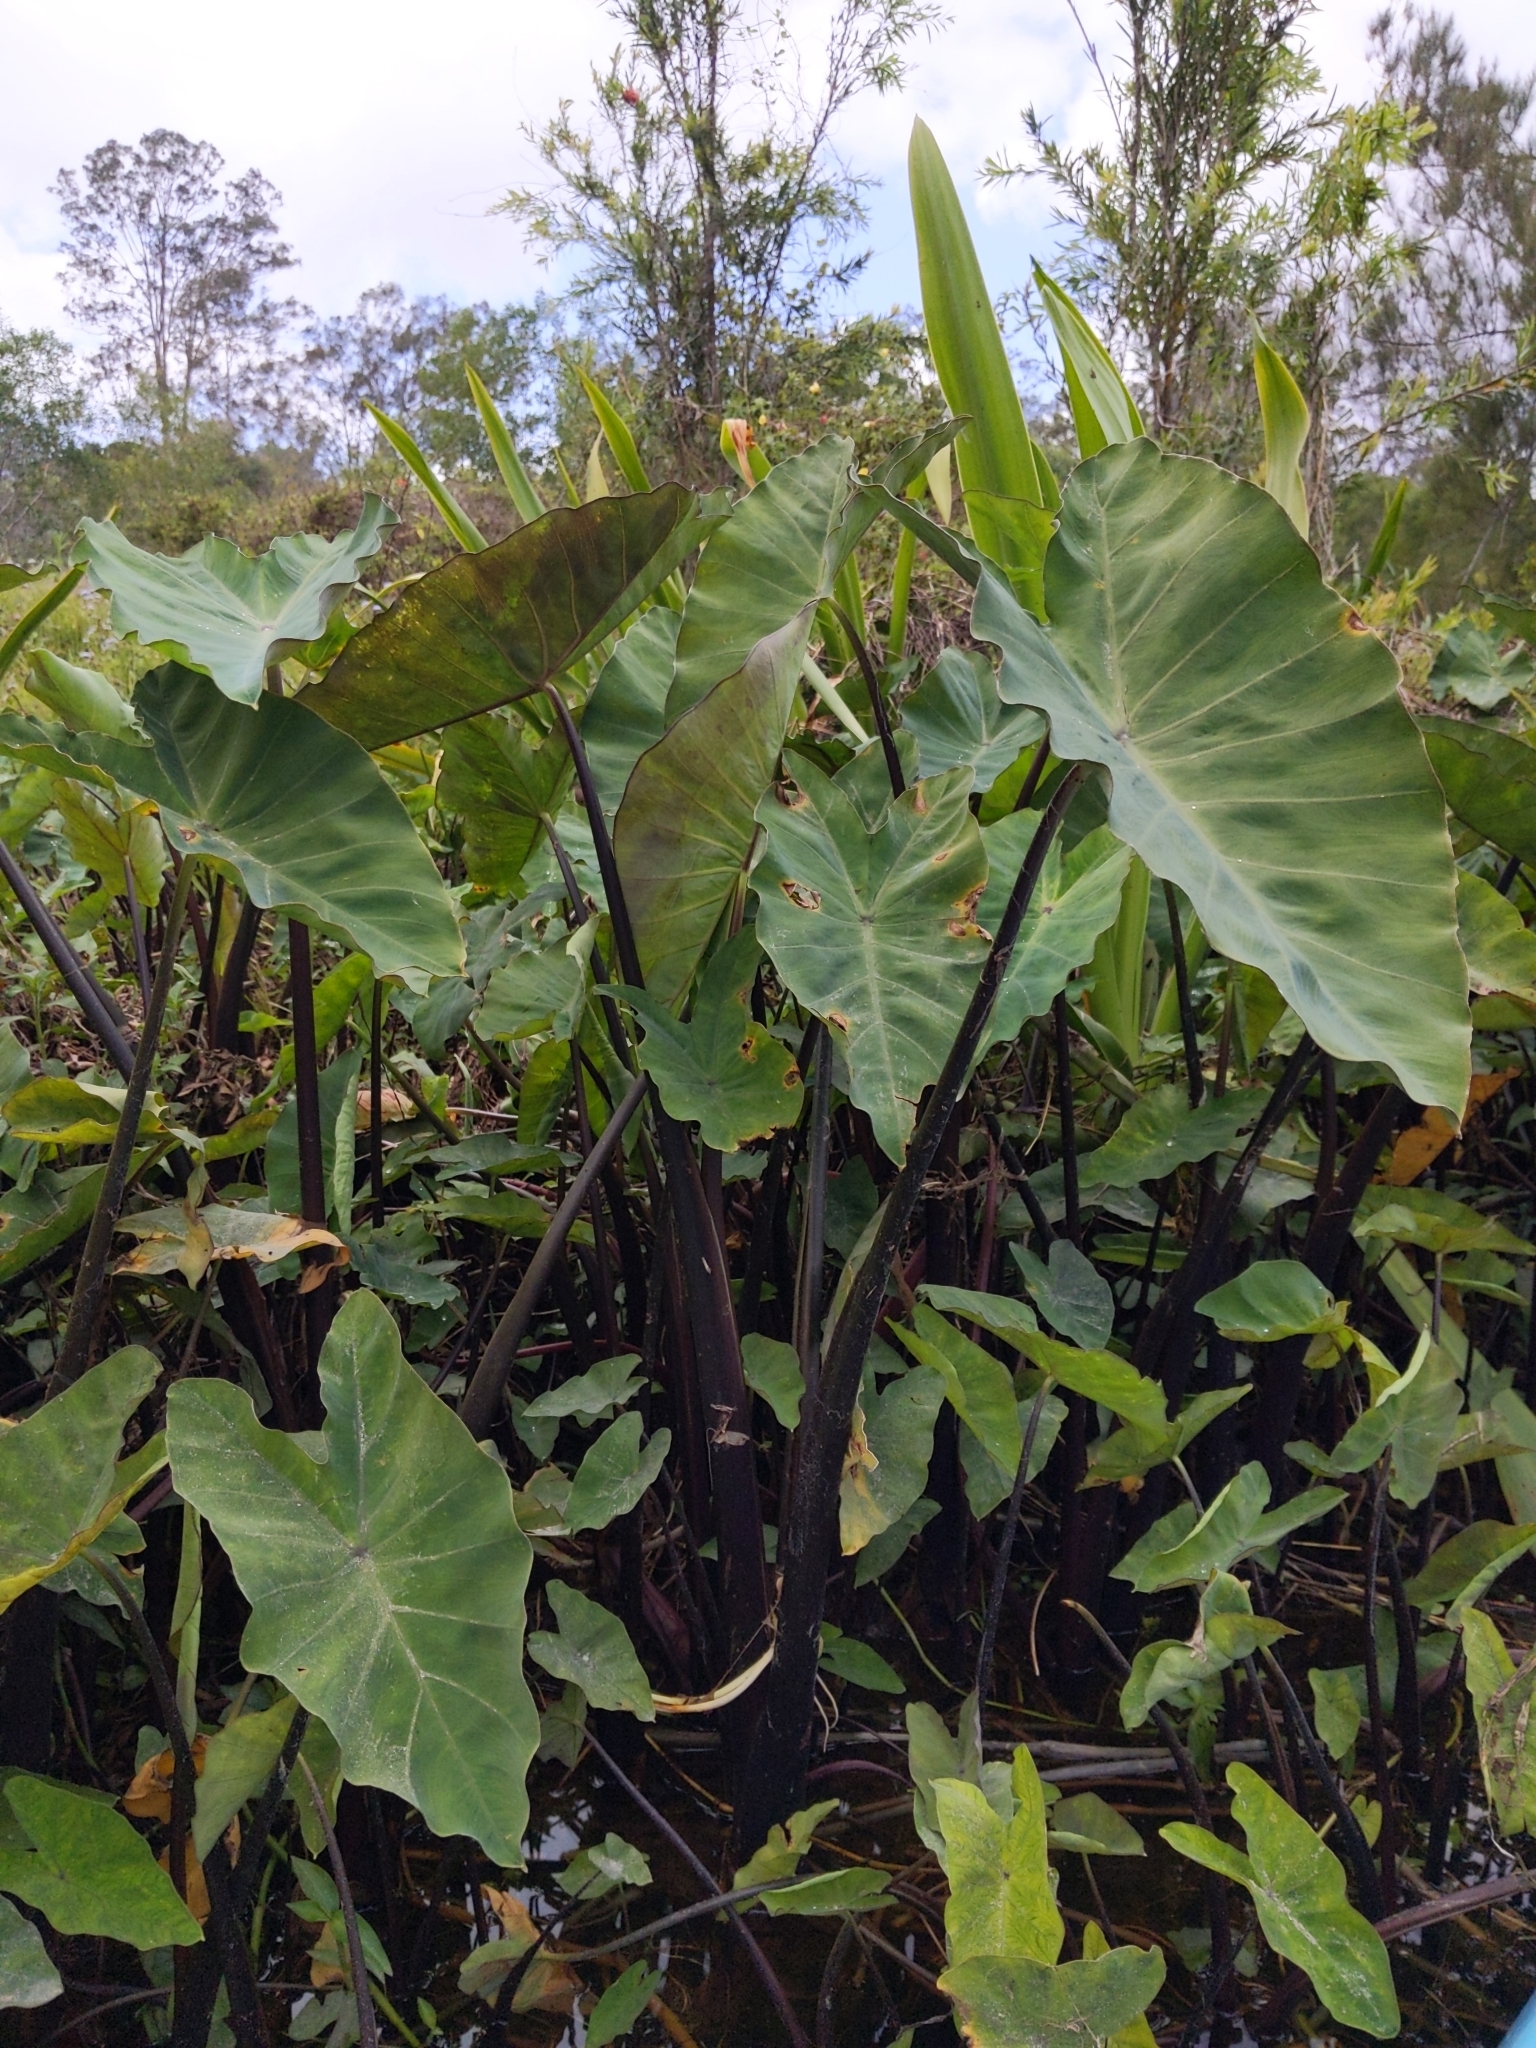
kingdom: Plantae
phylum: Tracheophyta
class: Liliopsida
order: Alismatales
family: Araceae
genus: Colocasia
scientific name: Colocasia esculenta
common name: Taro
